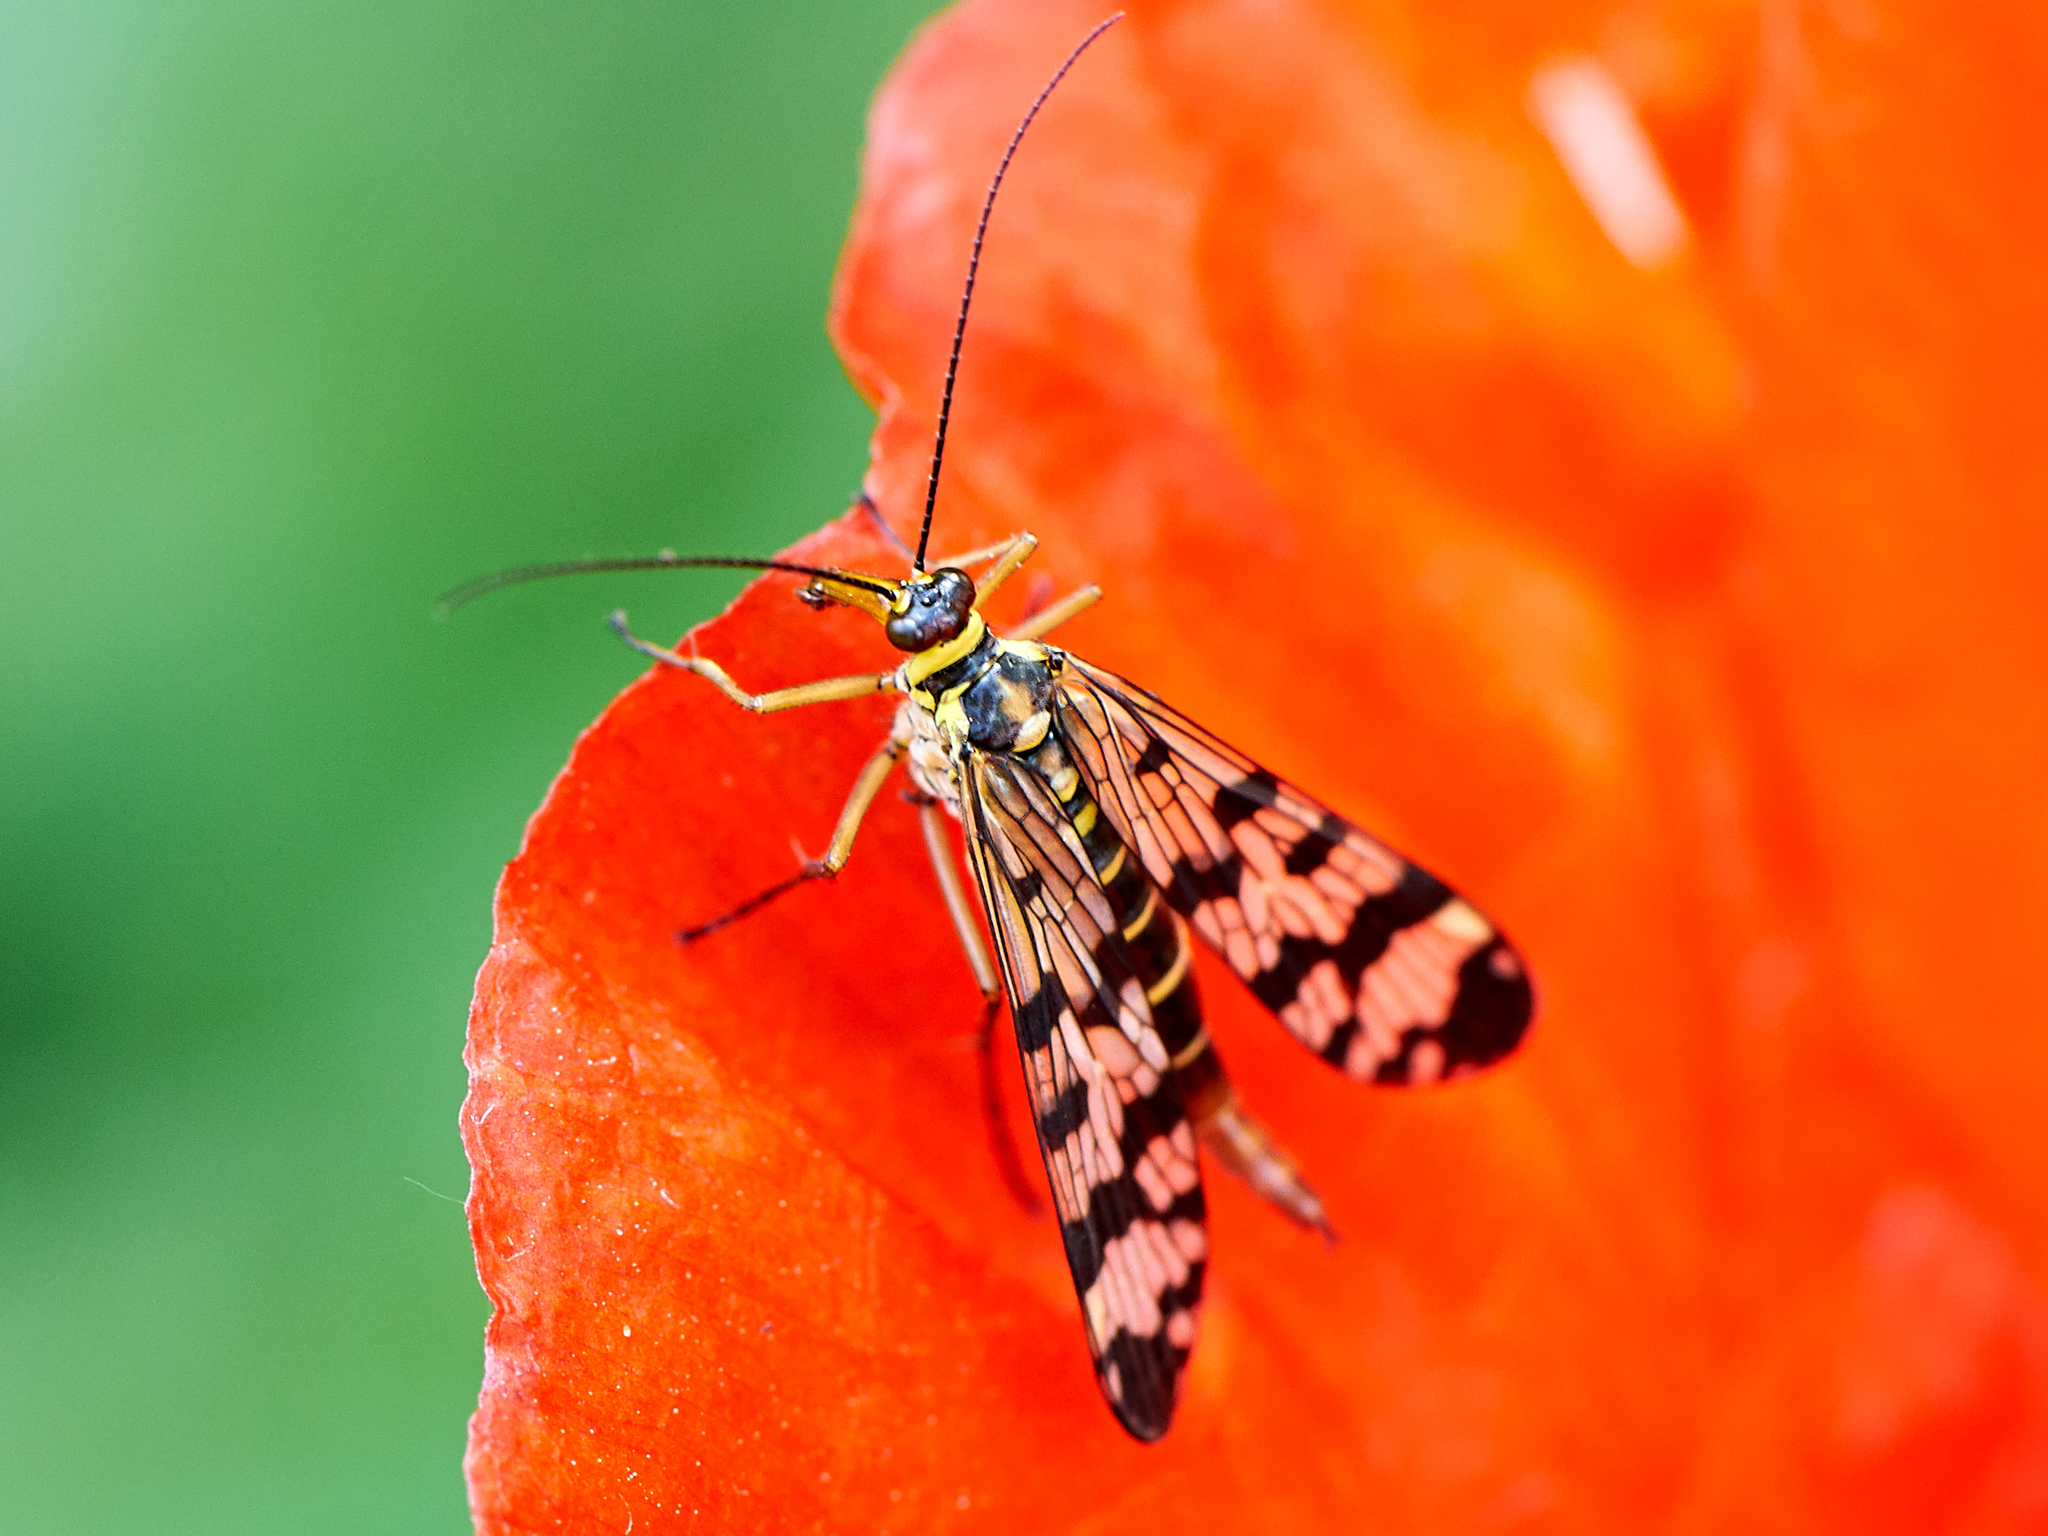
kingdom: Animalia
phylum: Arthropoda
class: Insecta
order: Mecoptera
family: Panorpidae
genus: Panorpa
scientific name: Panorpa communis
